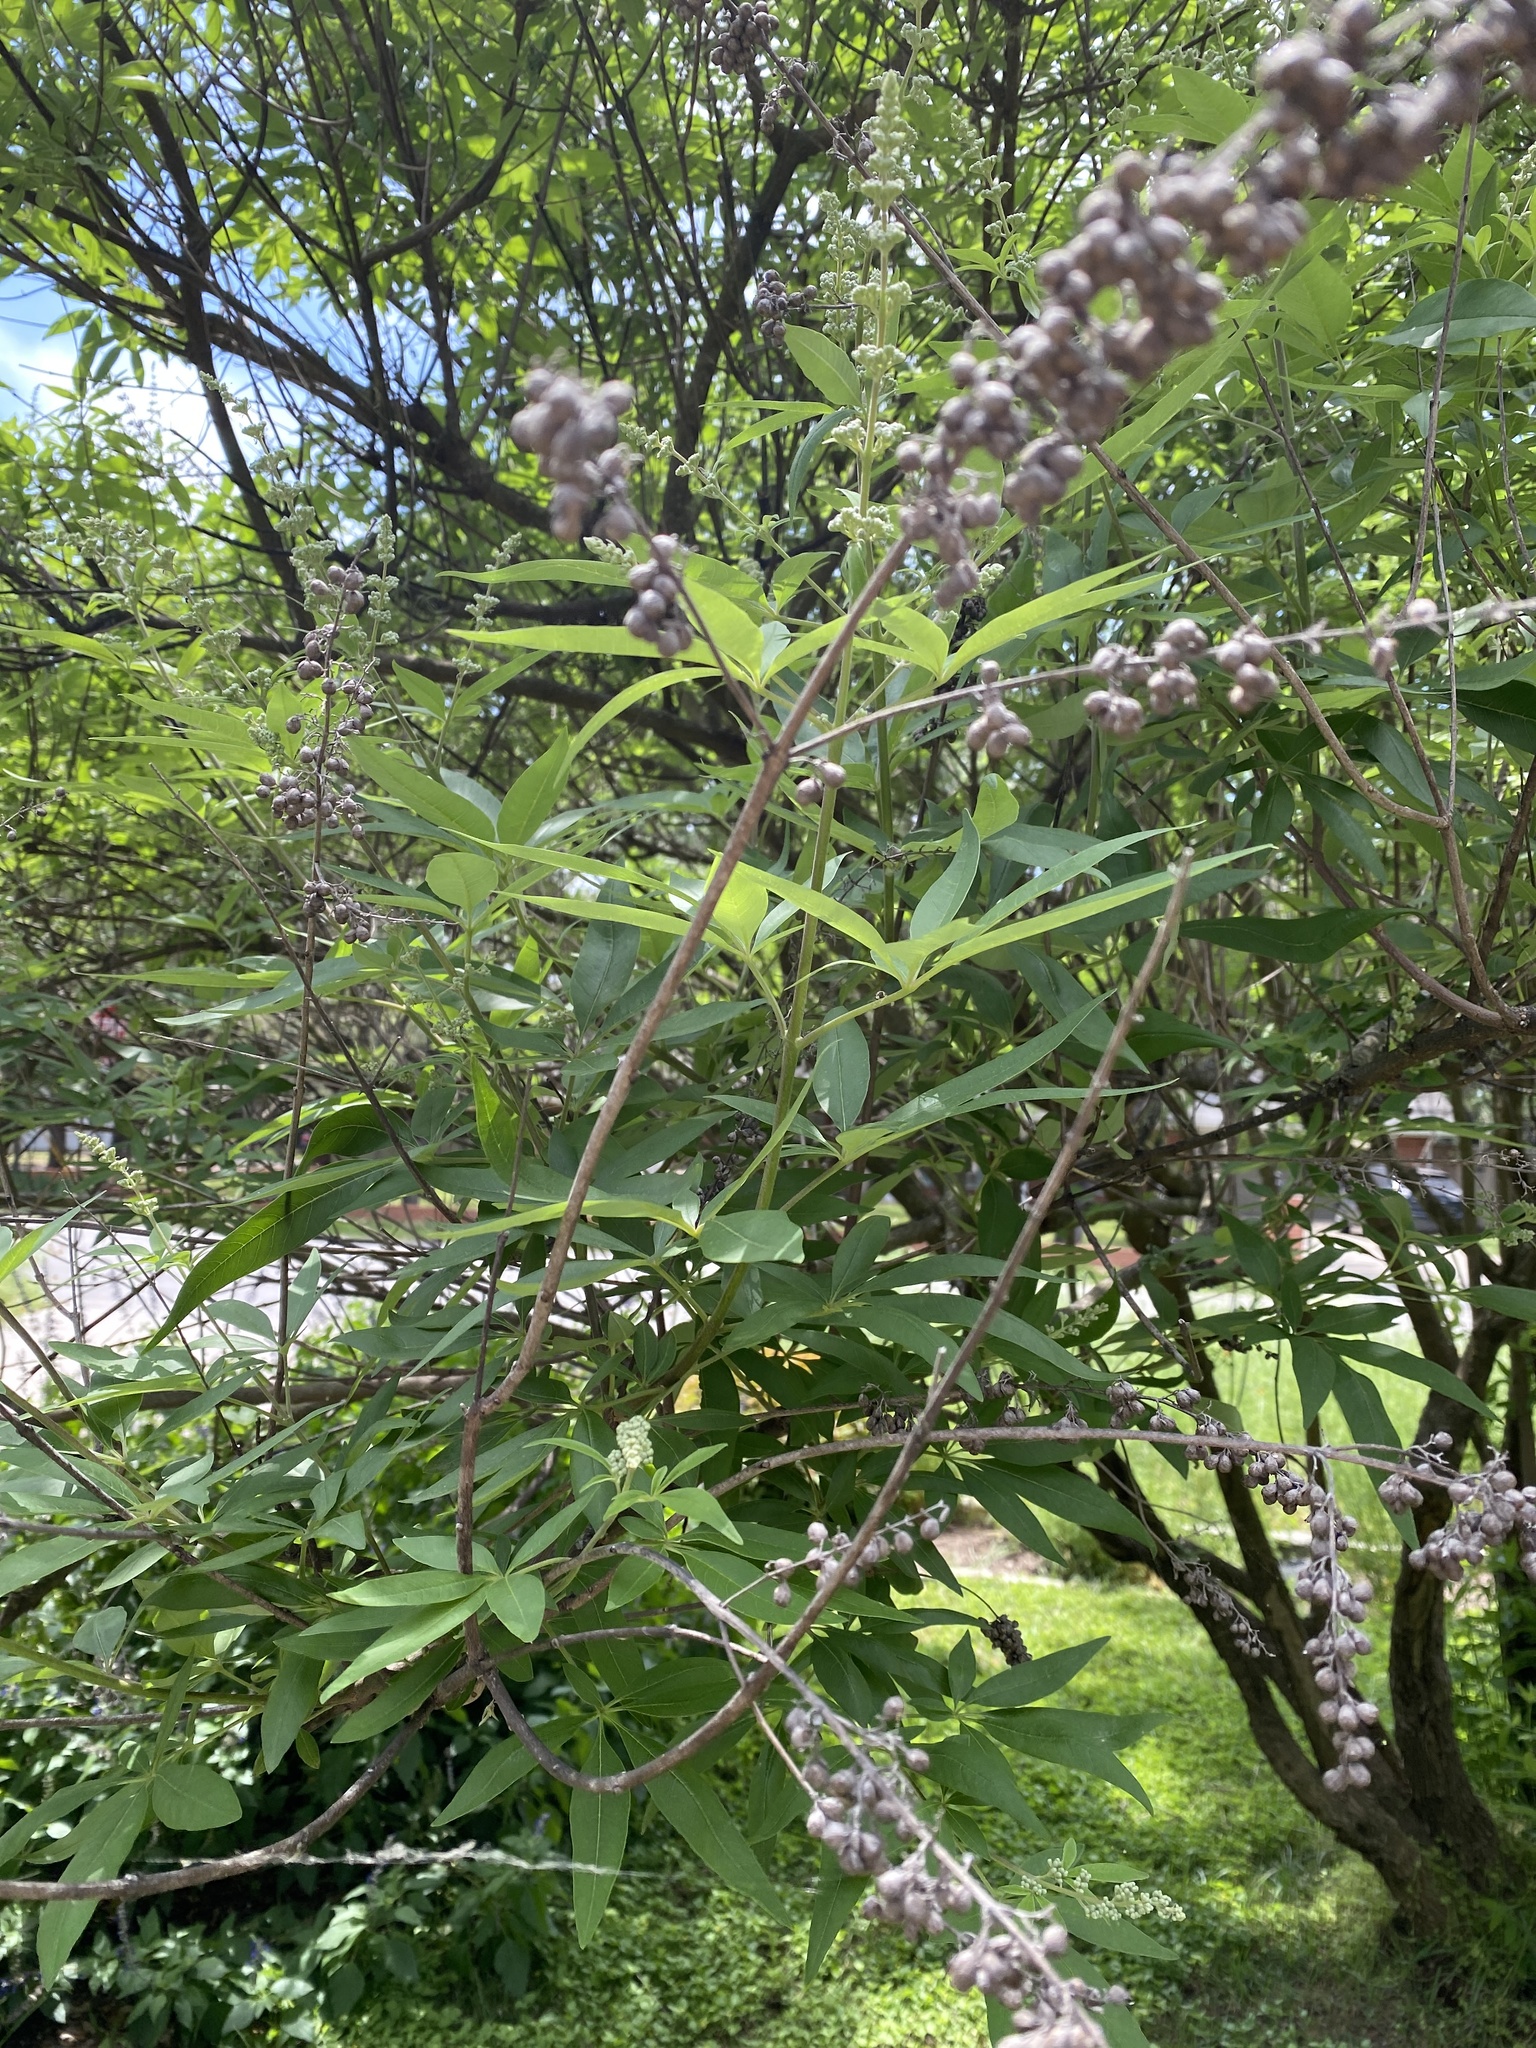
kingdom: Plantae
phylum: Tracheophyta
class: Magnoliopsida
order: Lamiales
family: Lamiaceae
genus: Vitex
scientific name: Vitex agnus-castus
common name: Chasteberry
